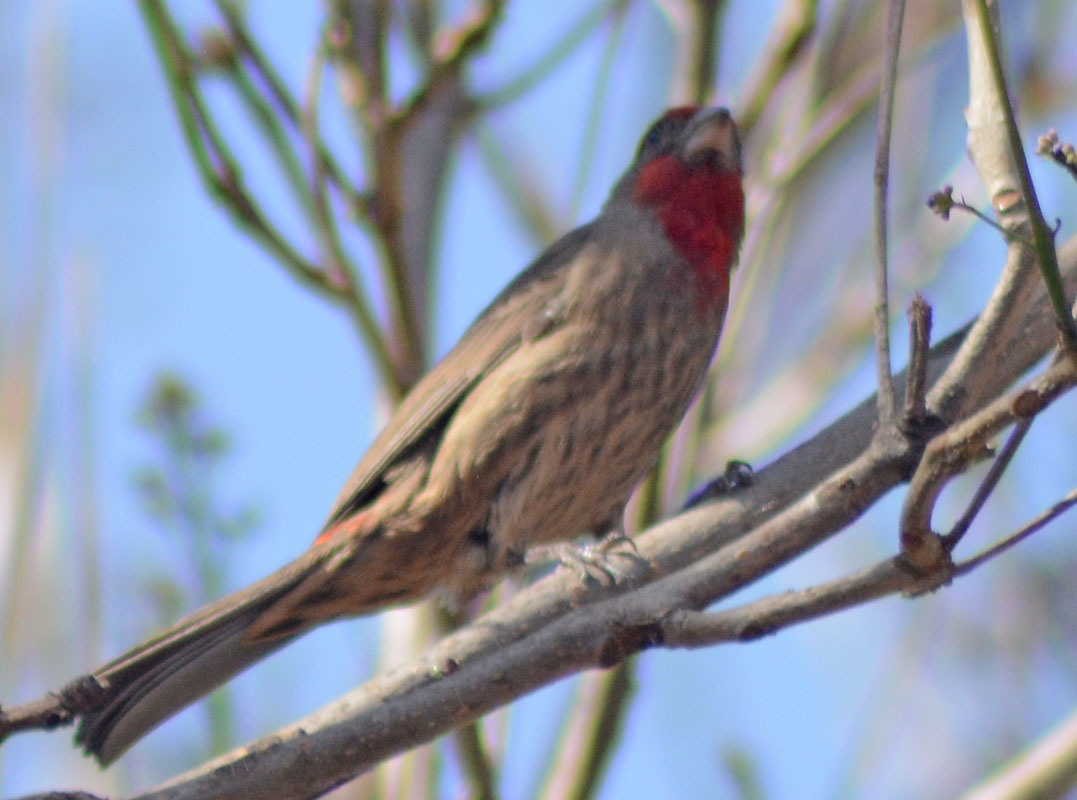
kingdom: Animalia
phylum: Chordata
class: Aves
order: Passeriformes
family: Fringillidae
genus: Haemorhous
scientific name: Haemorhous mexicanus
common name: House finch
